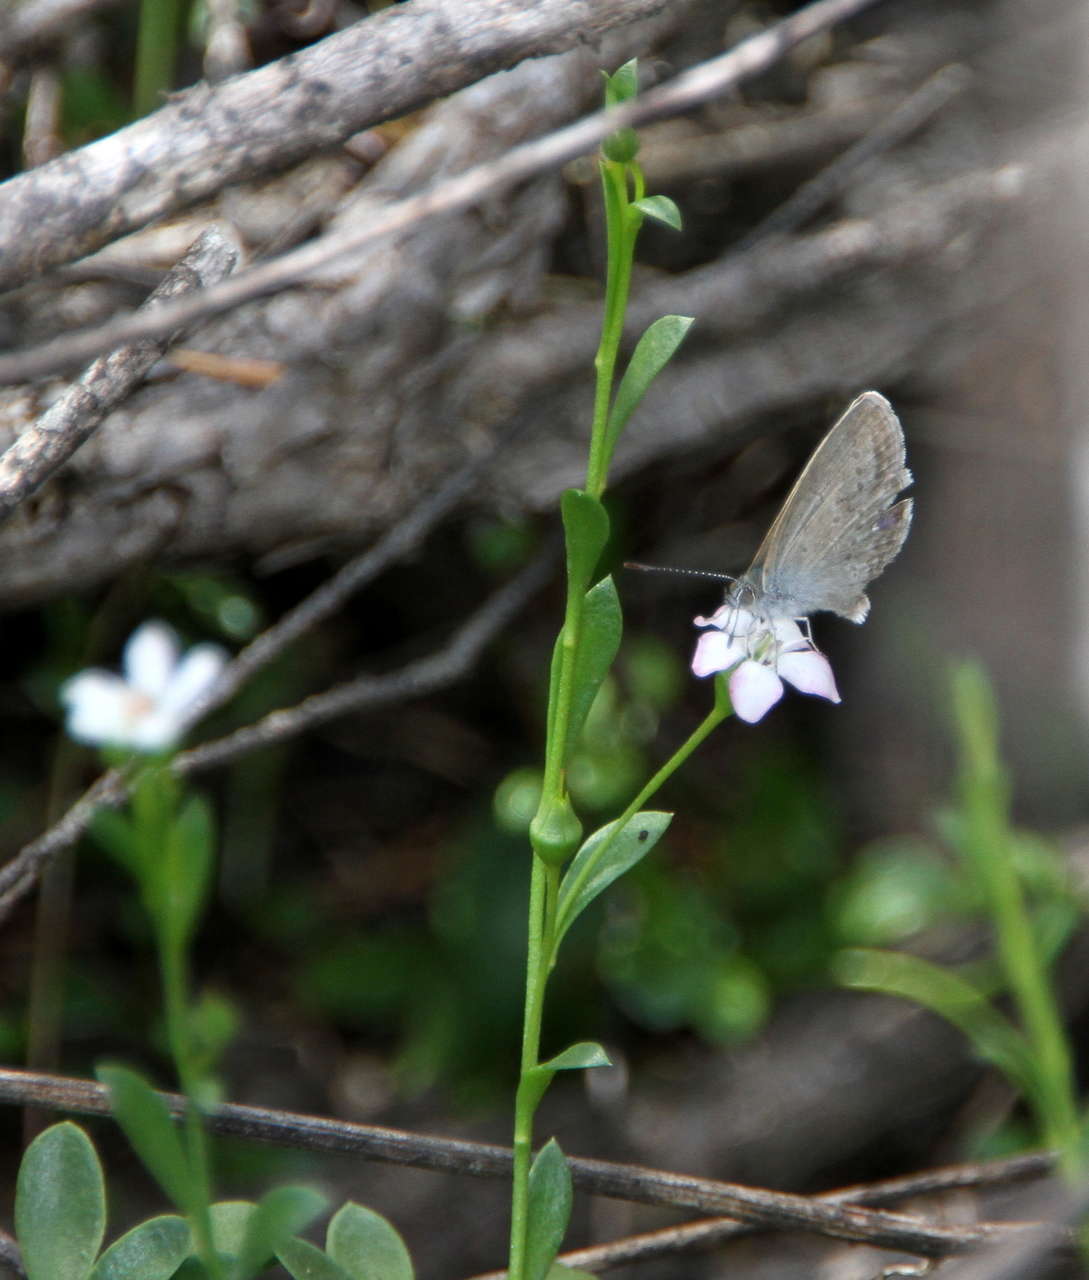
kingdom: Plantae
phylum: Tracheophyta
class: Magnoliopsida
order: Ericales
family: Primulaceae
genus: Samolus
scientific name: Samolus repens
